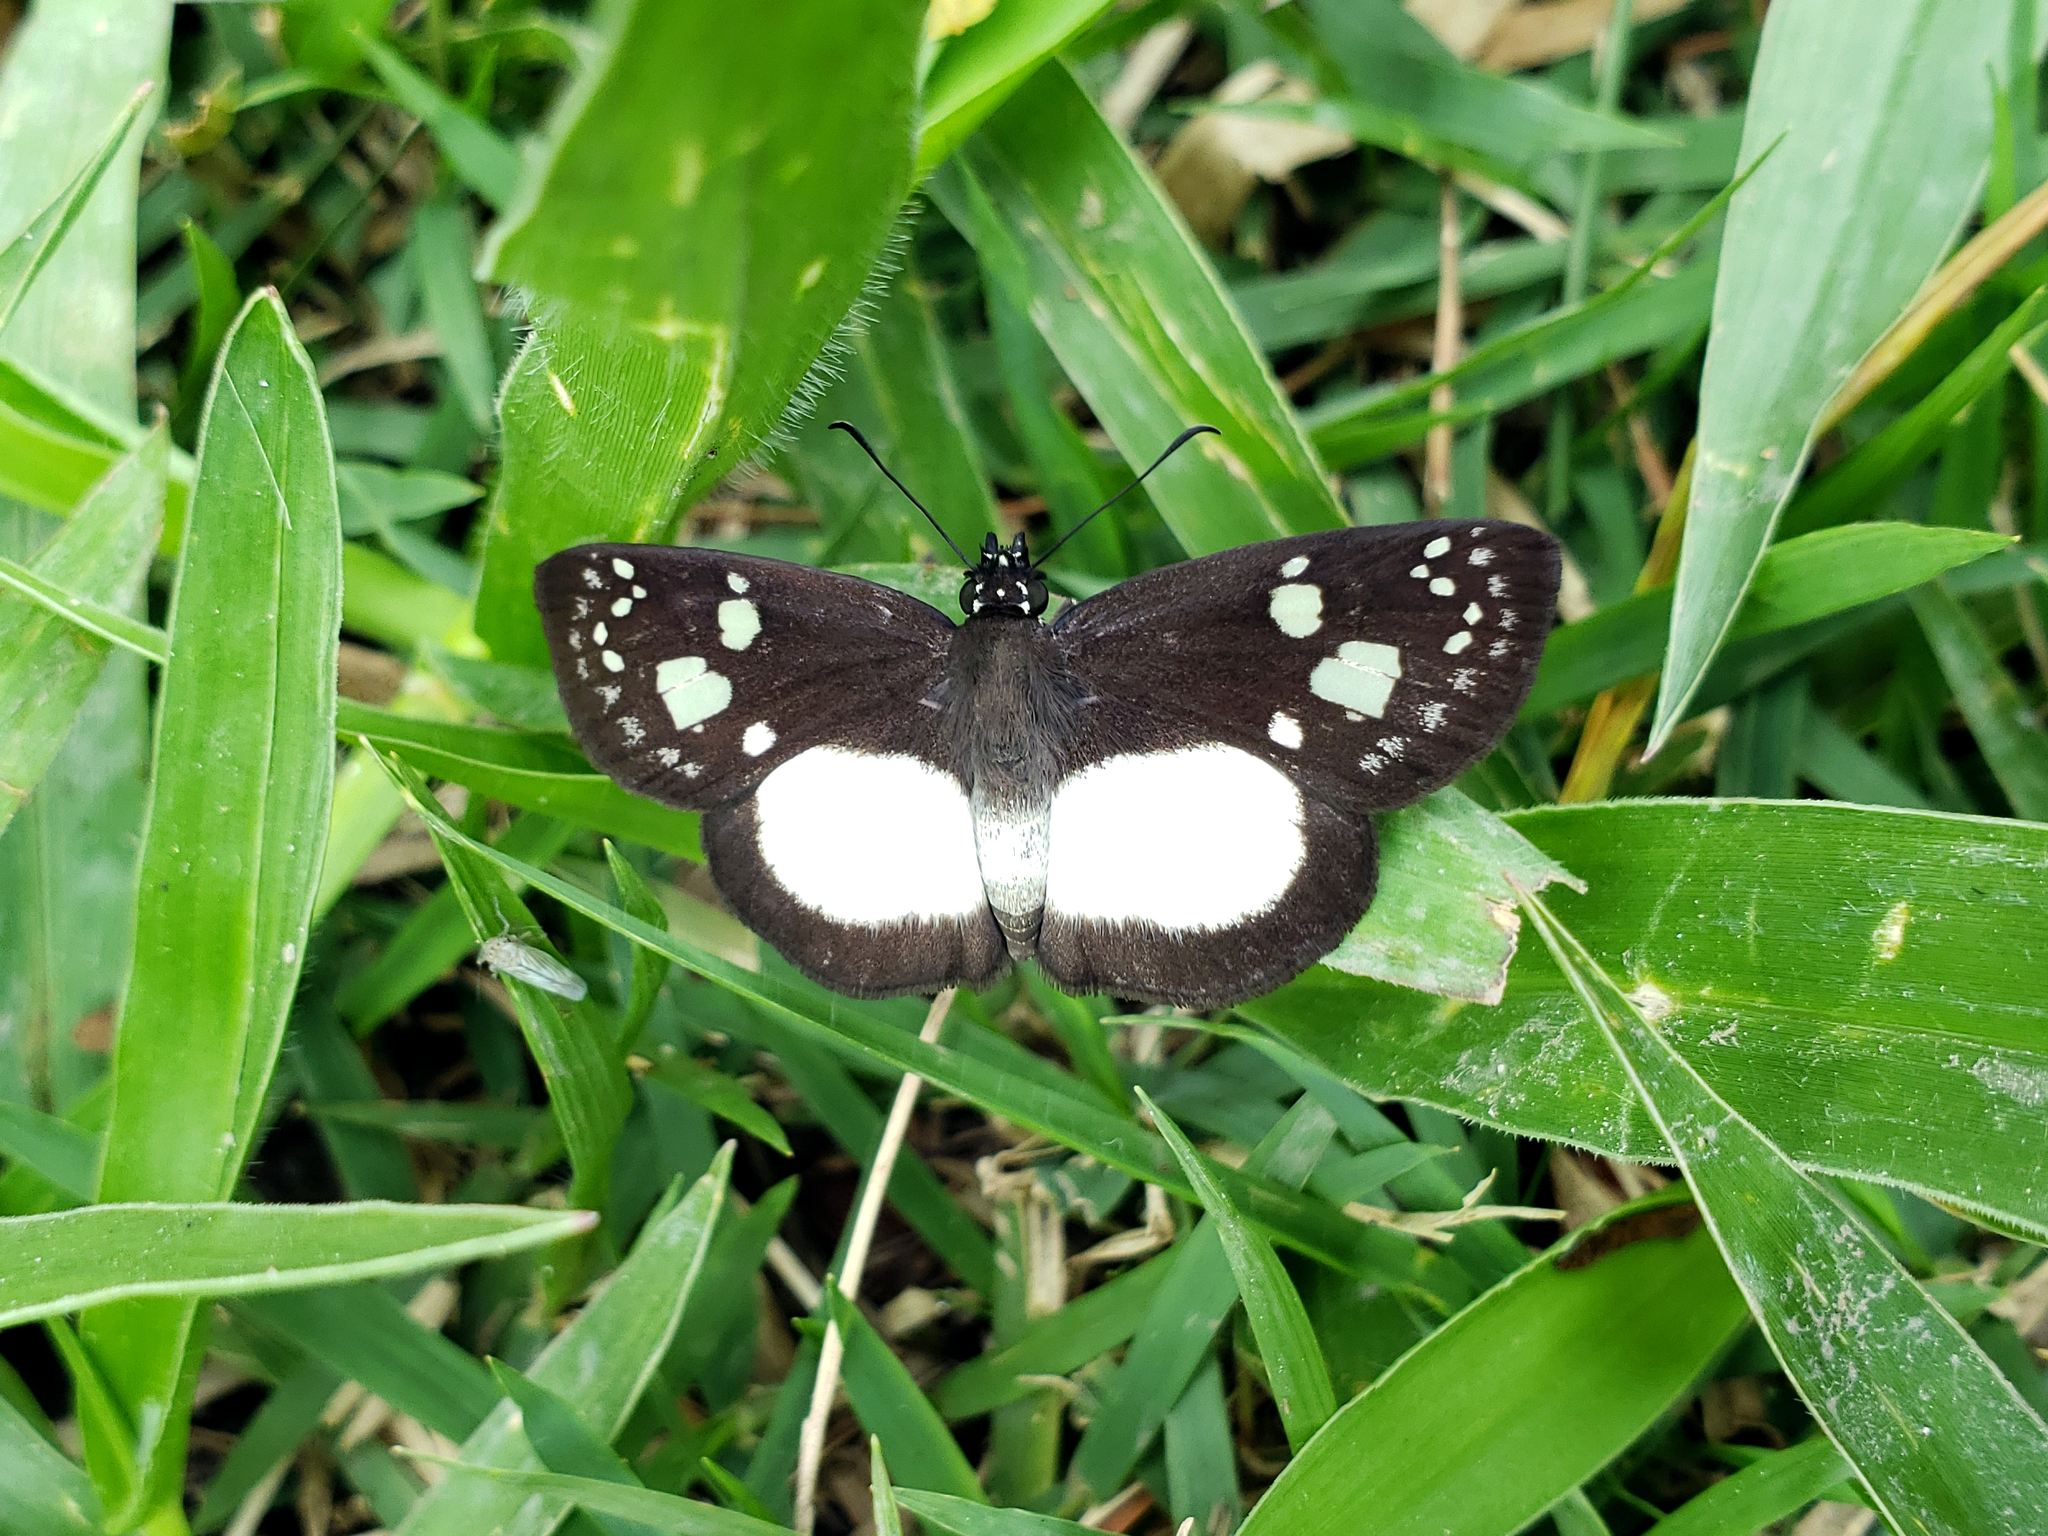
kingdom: Animalia
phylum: Arthropoda
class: Insecta
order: Lepidoptera
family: Hesperiidae
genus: Milanion
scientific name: Milanion leucaspis
